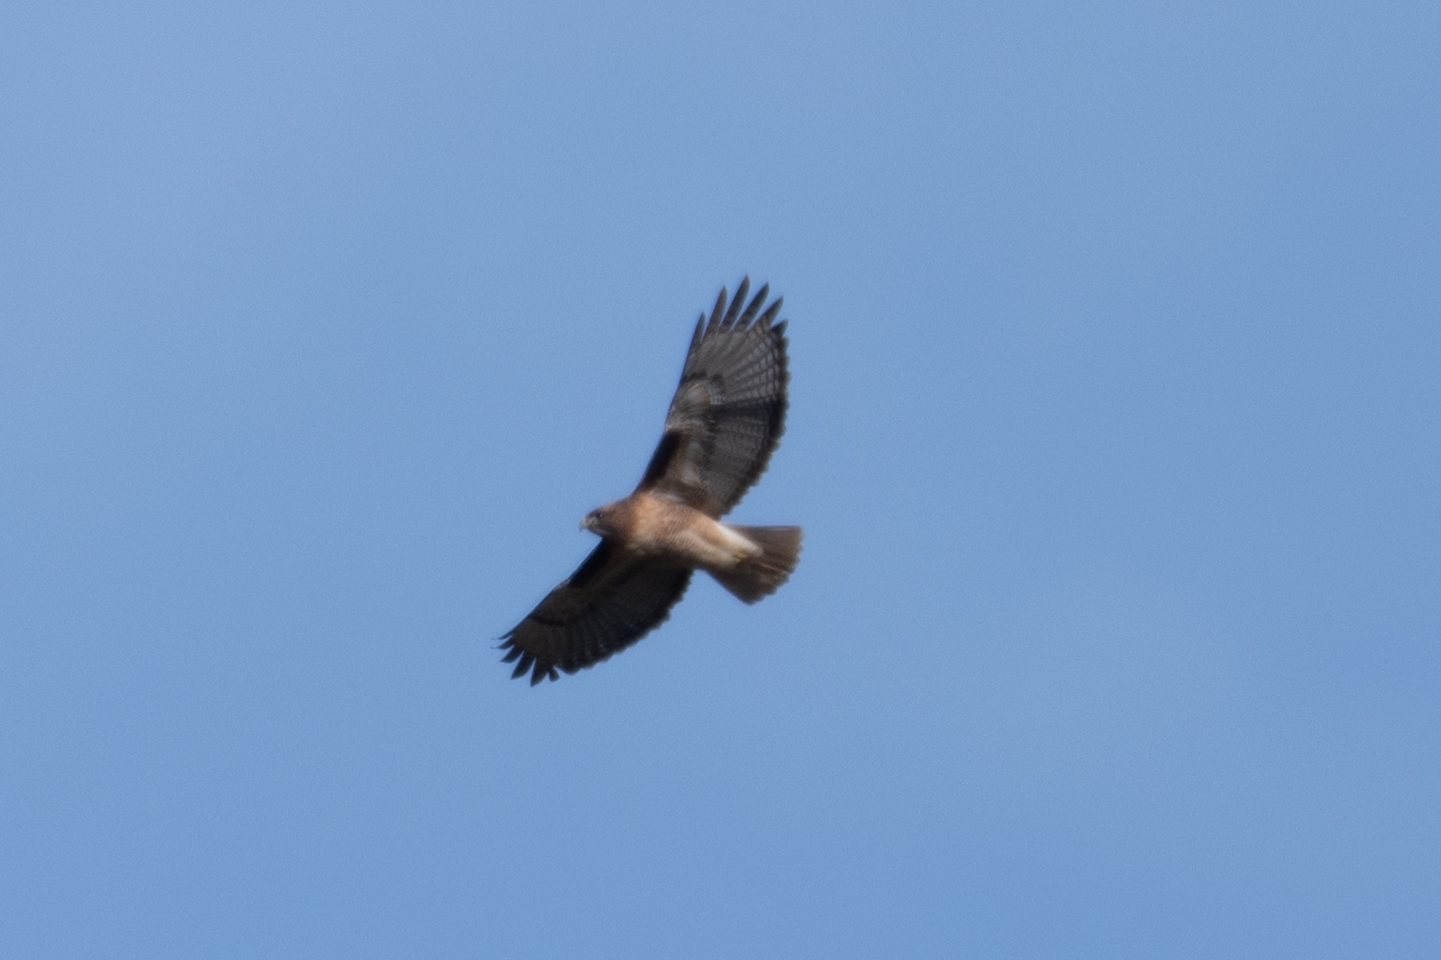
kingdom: Animalia
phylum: Chordata
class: Aves
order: Accipitriformes
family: Accipitridae
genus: Buteo
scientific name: Buteo jamaicensis
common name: Red-tailed hawk
